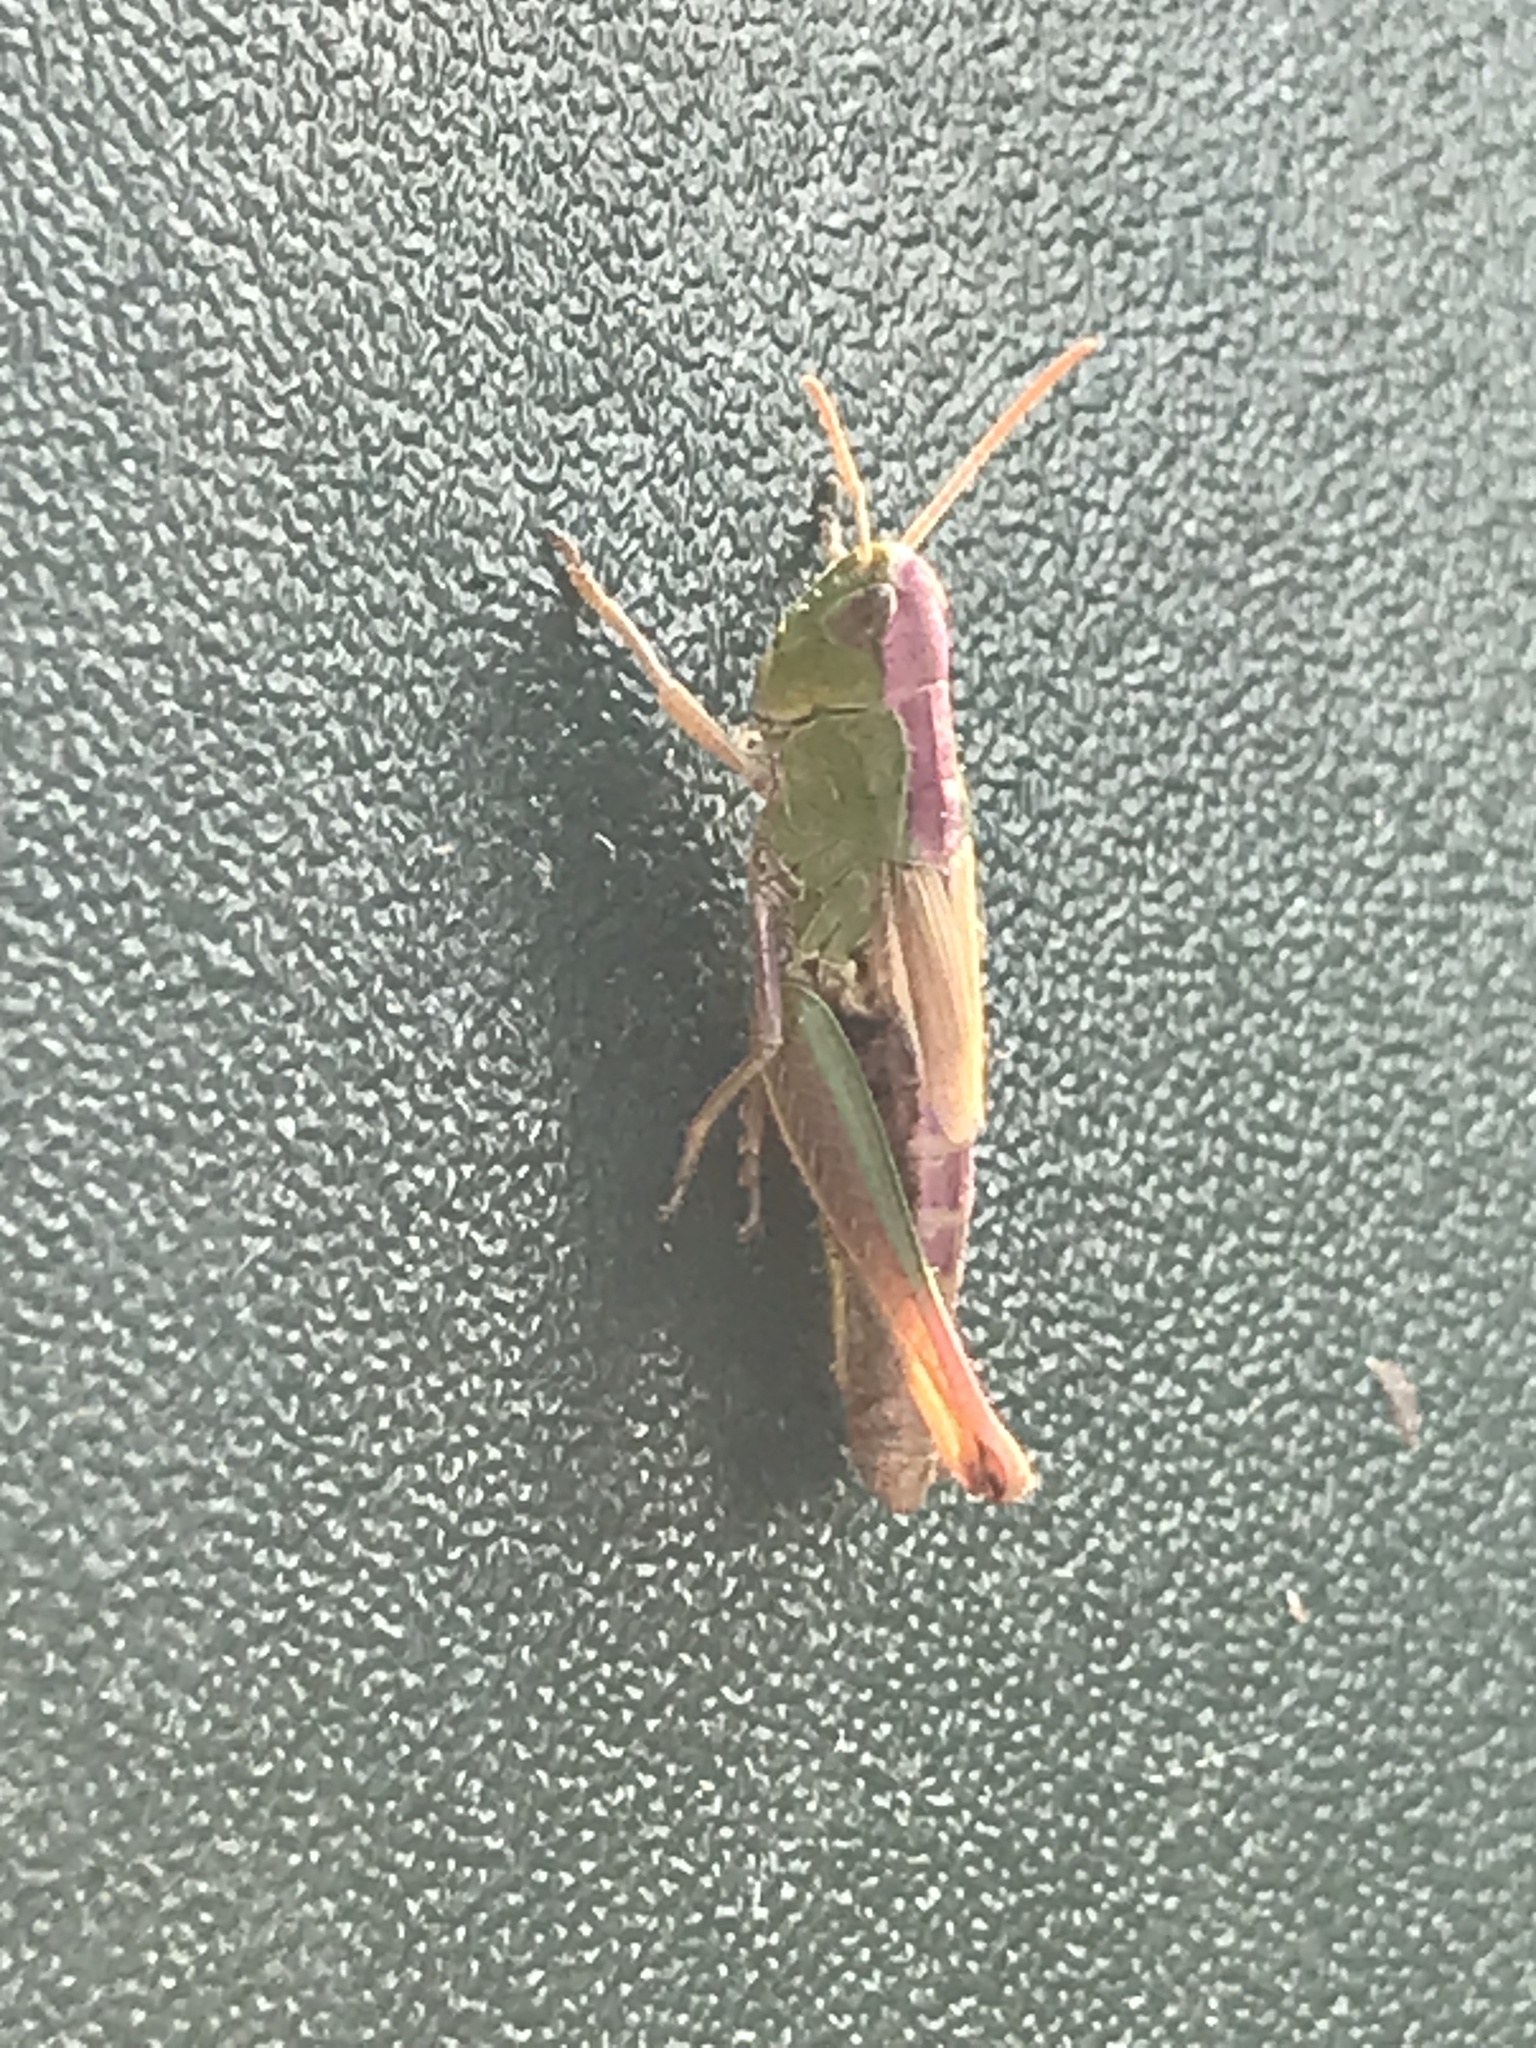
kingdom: Animalia
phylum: Arthropoda
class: Insecta
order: Orthoptera
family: Acrididae
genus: Pseudochorthippus
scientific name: Pseudochorthippus parallelus
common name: Meadow grasshopper
